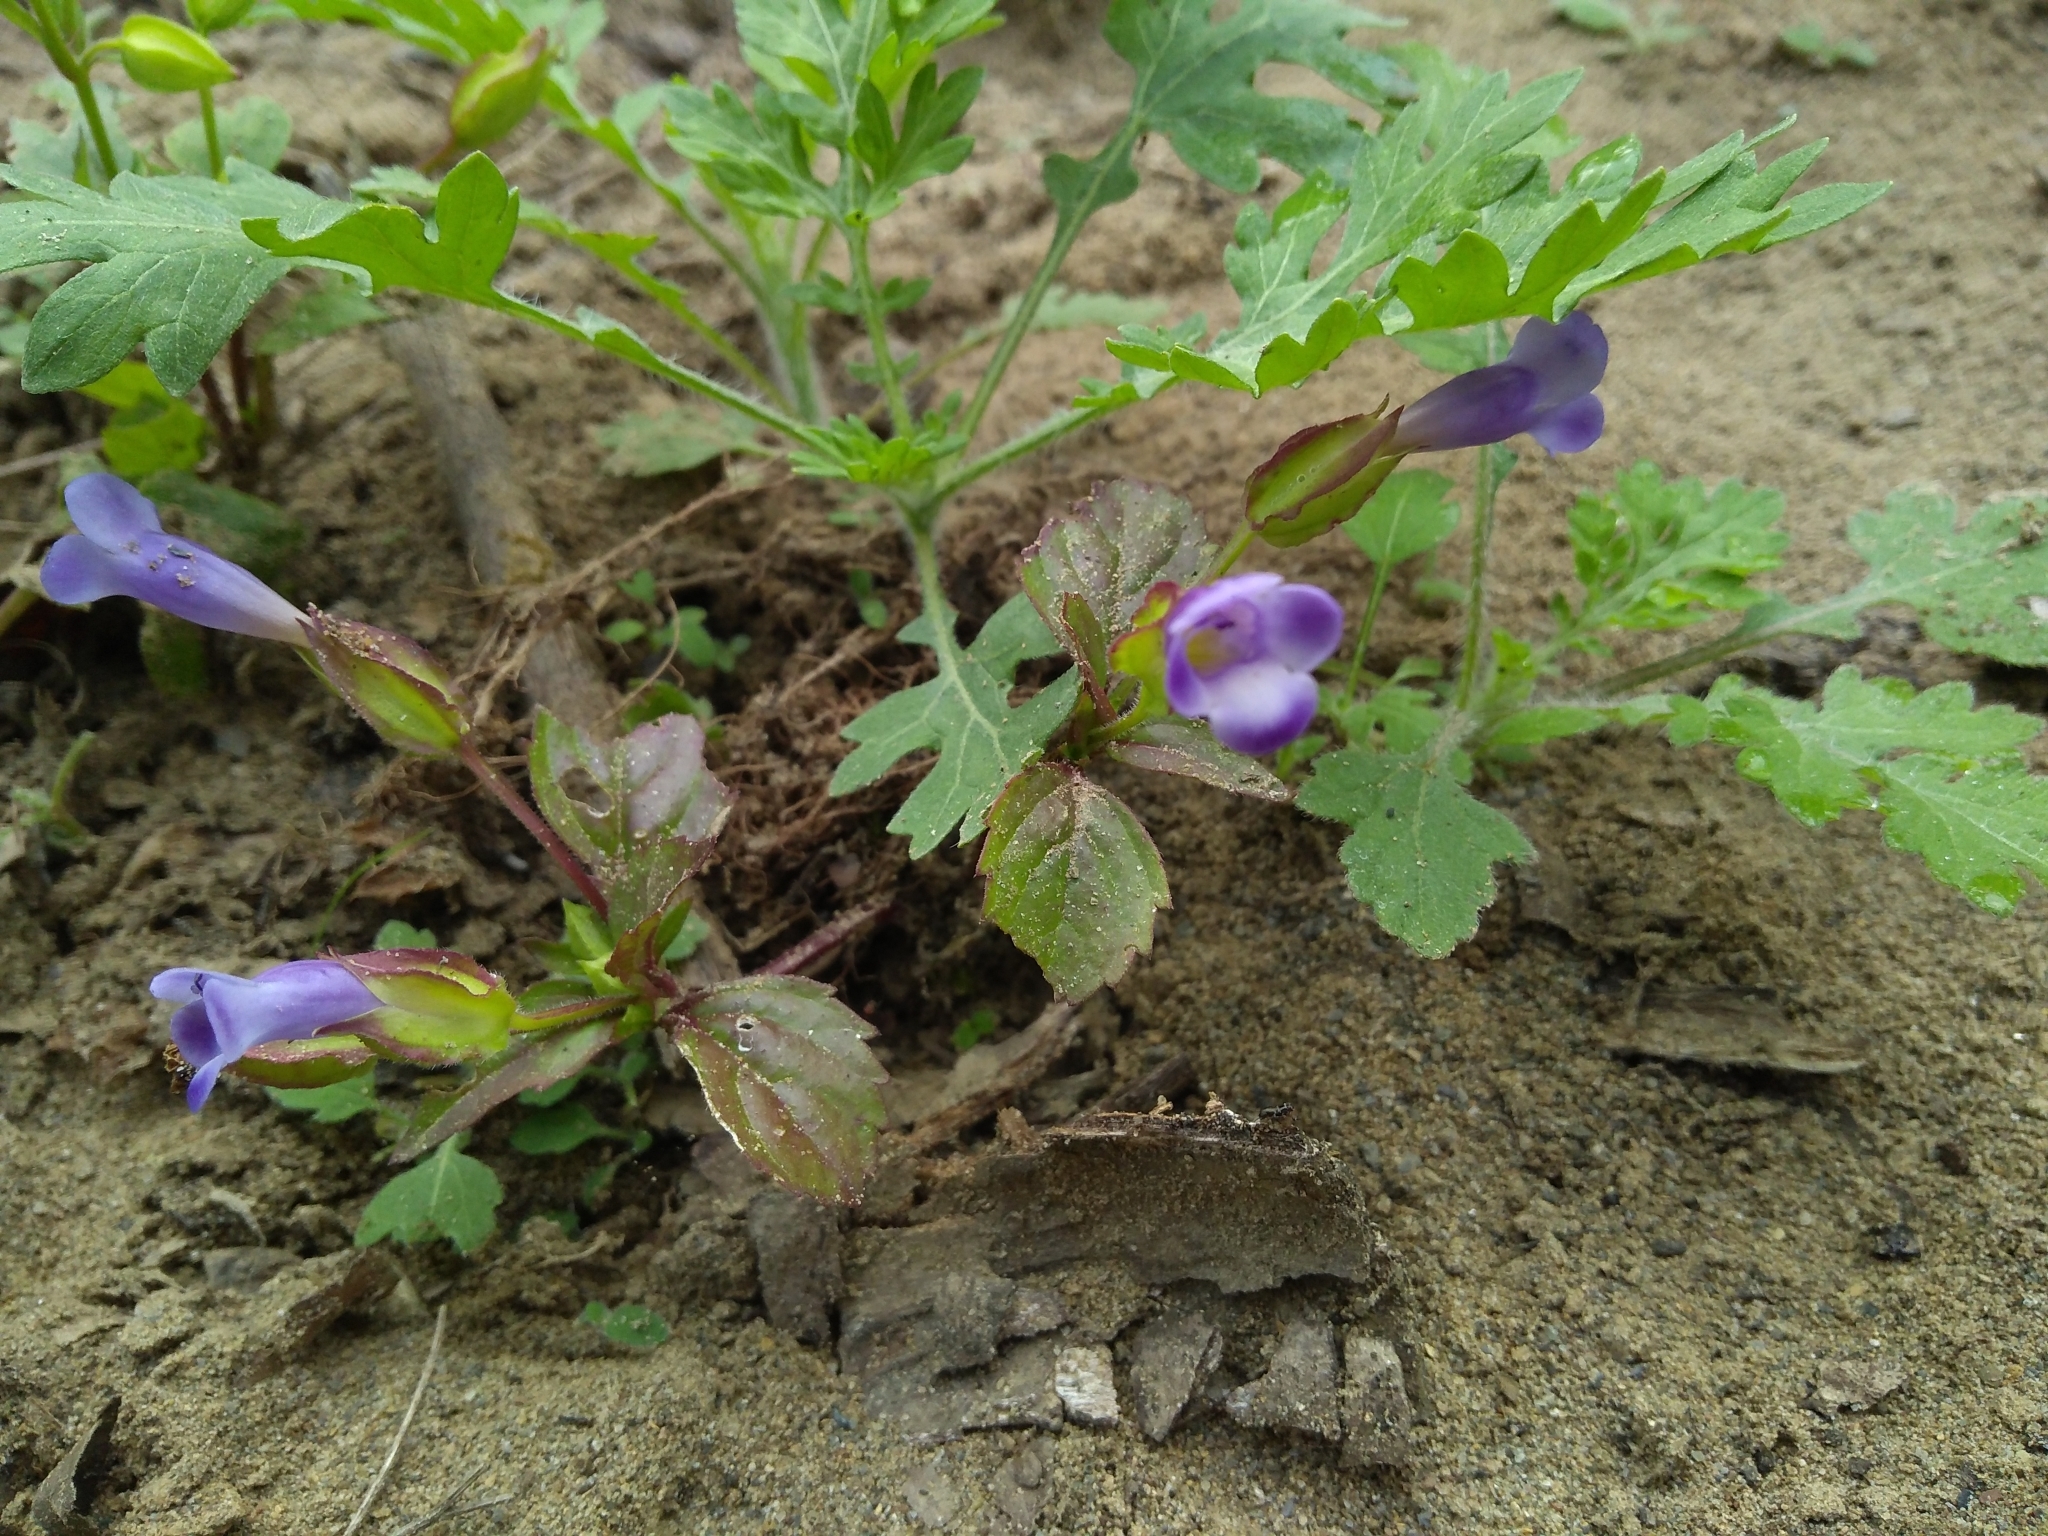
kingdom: Plantae
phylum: Tracheophyta
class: Magnoliopsida
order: Lamiales
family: Linderniaceae
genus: Torenia
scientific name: Torenia cordifolia
